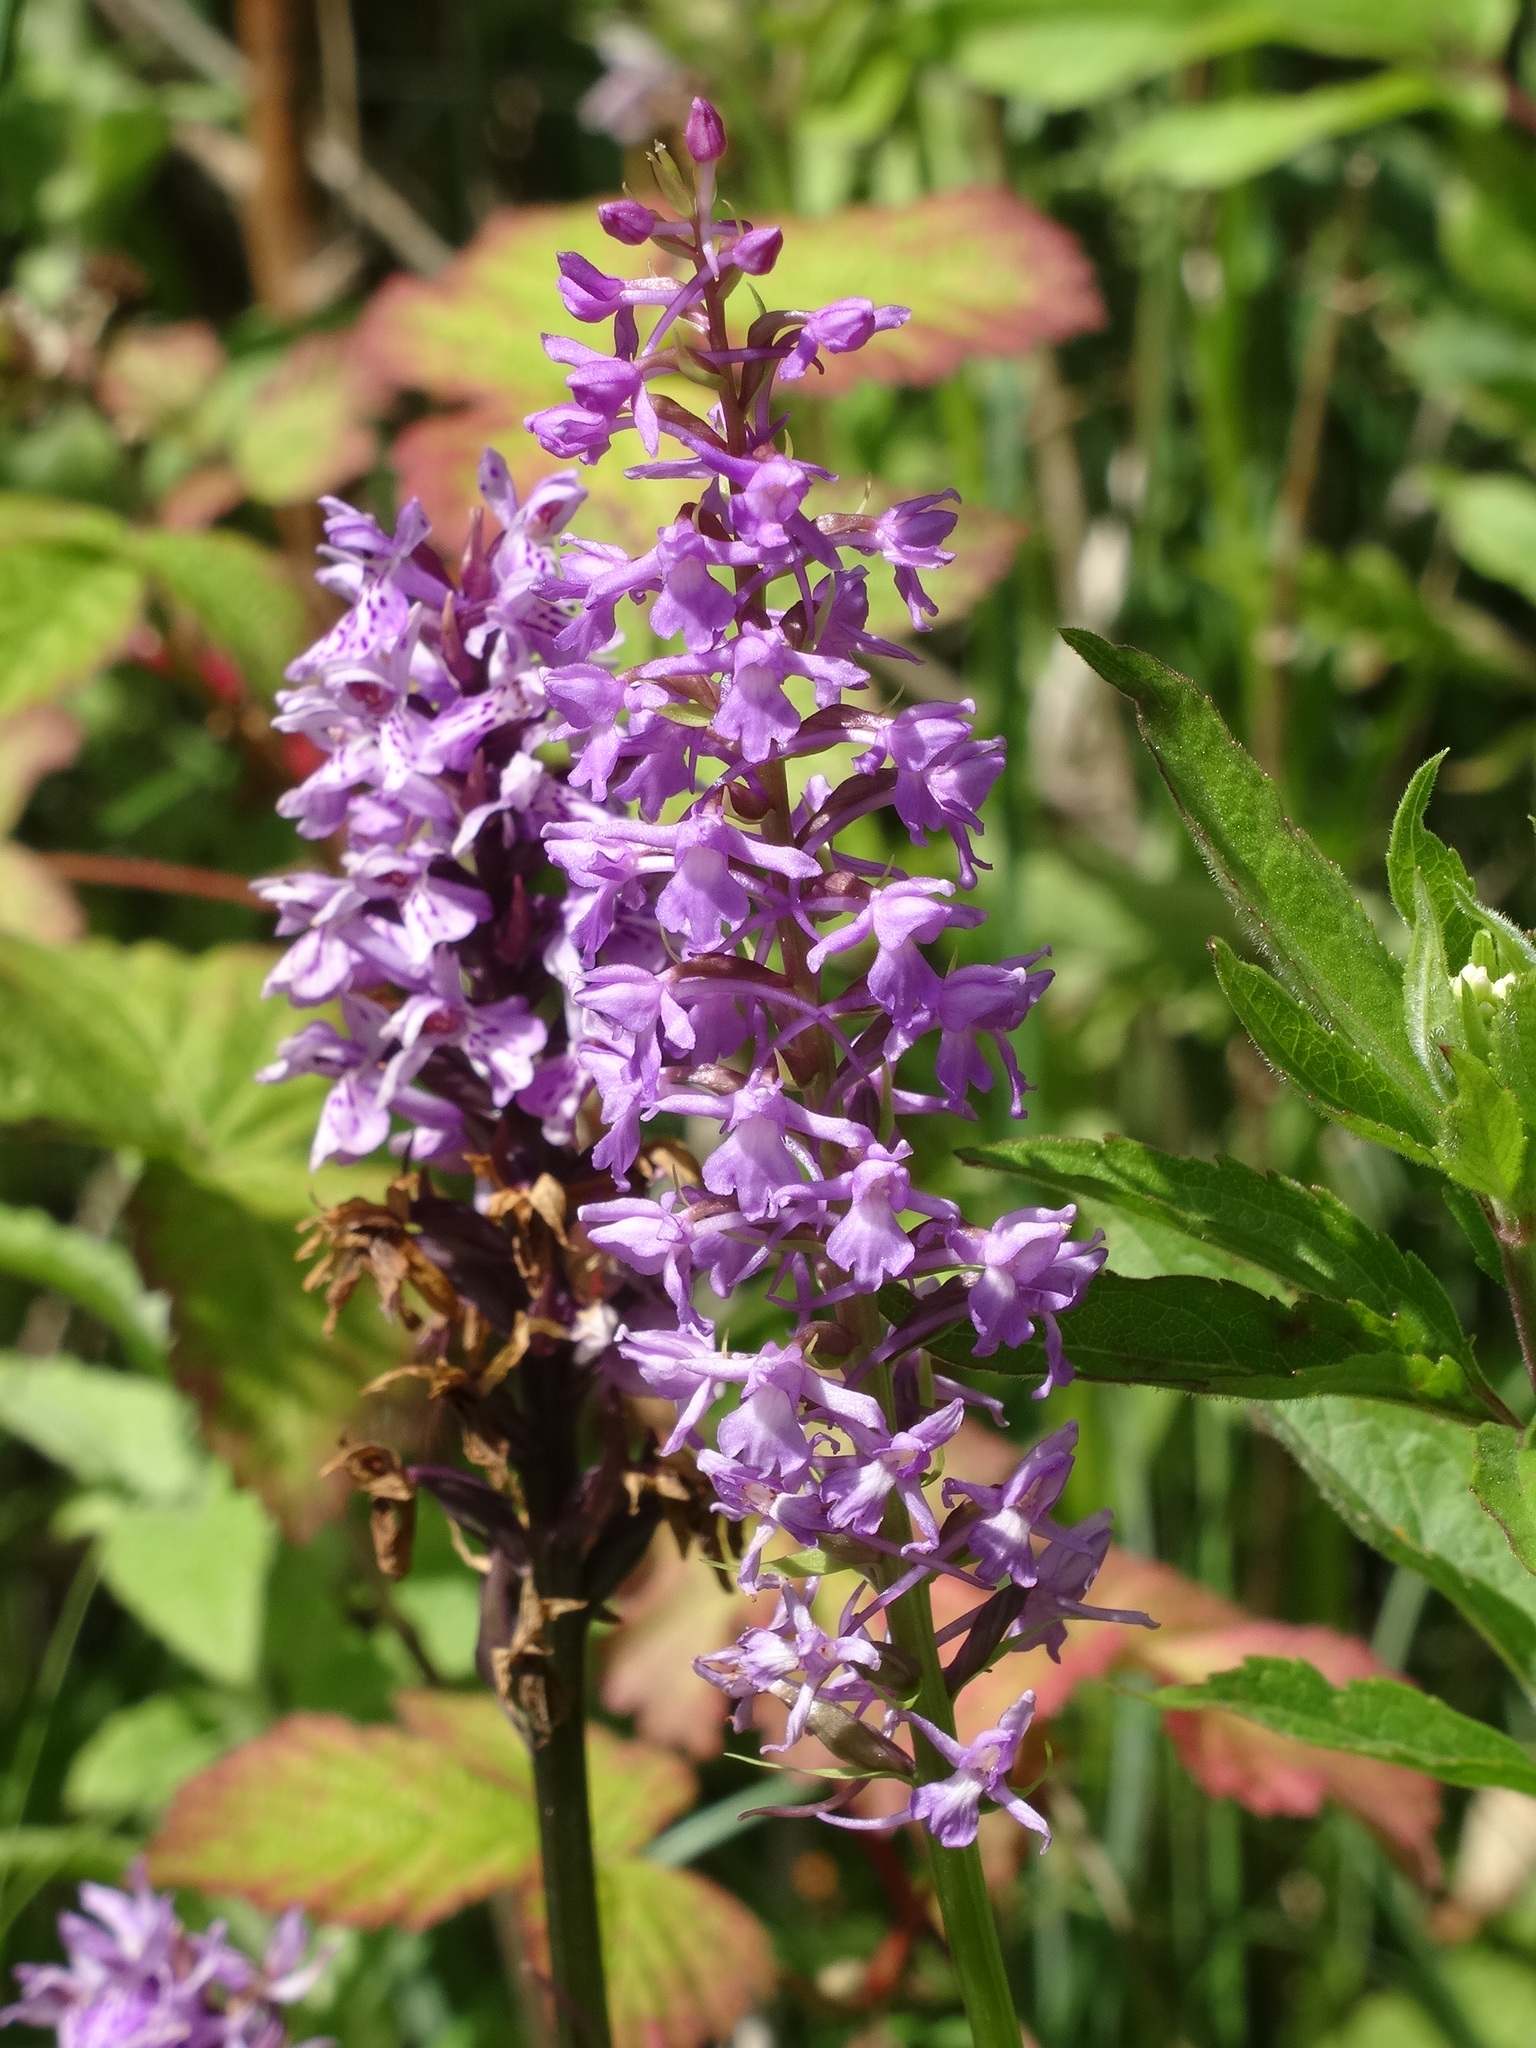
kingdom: Plantae
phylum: Tracheophyta
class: Liliopsida
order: Asparagales
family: Orchidaceae
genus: Gymnadenia
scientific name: Gymnadenia conopsea
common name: Fragrant orchid
